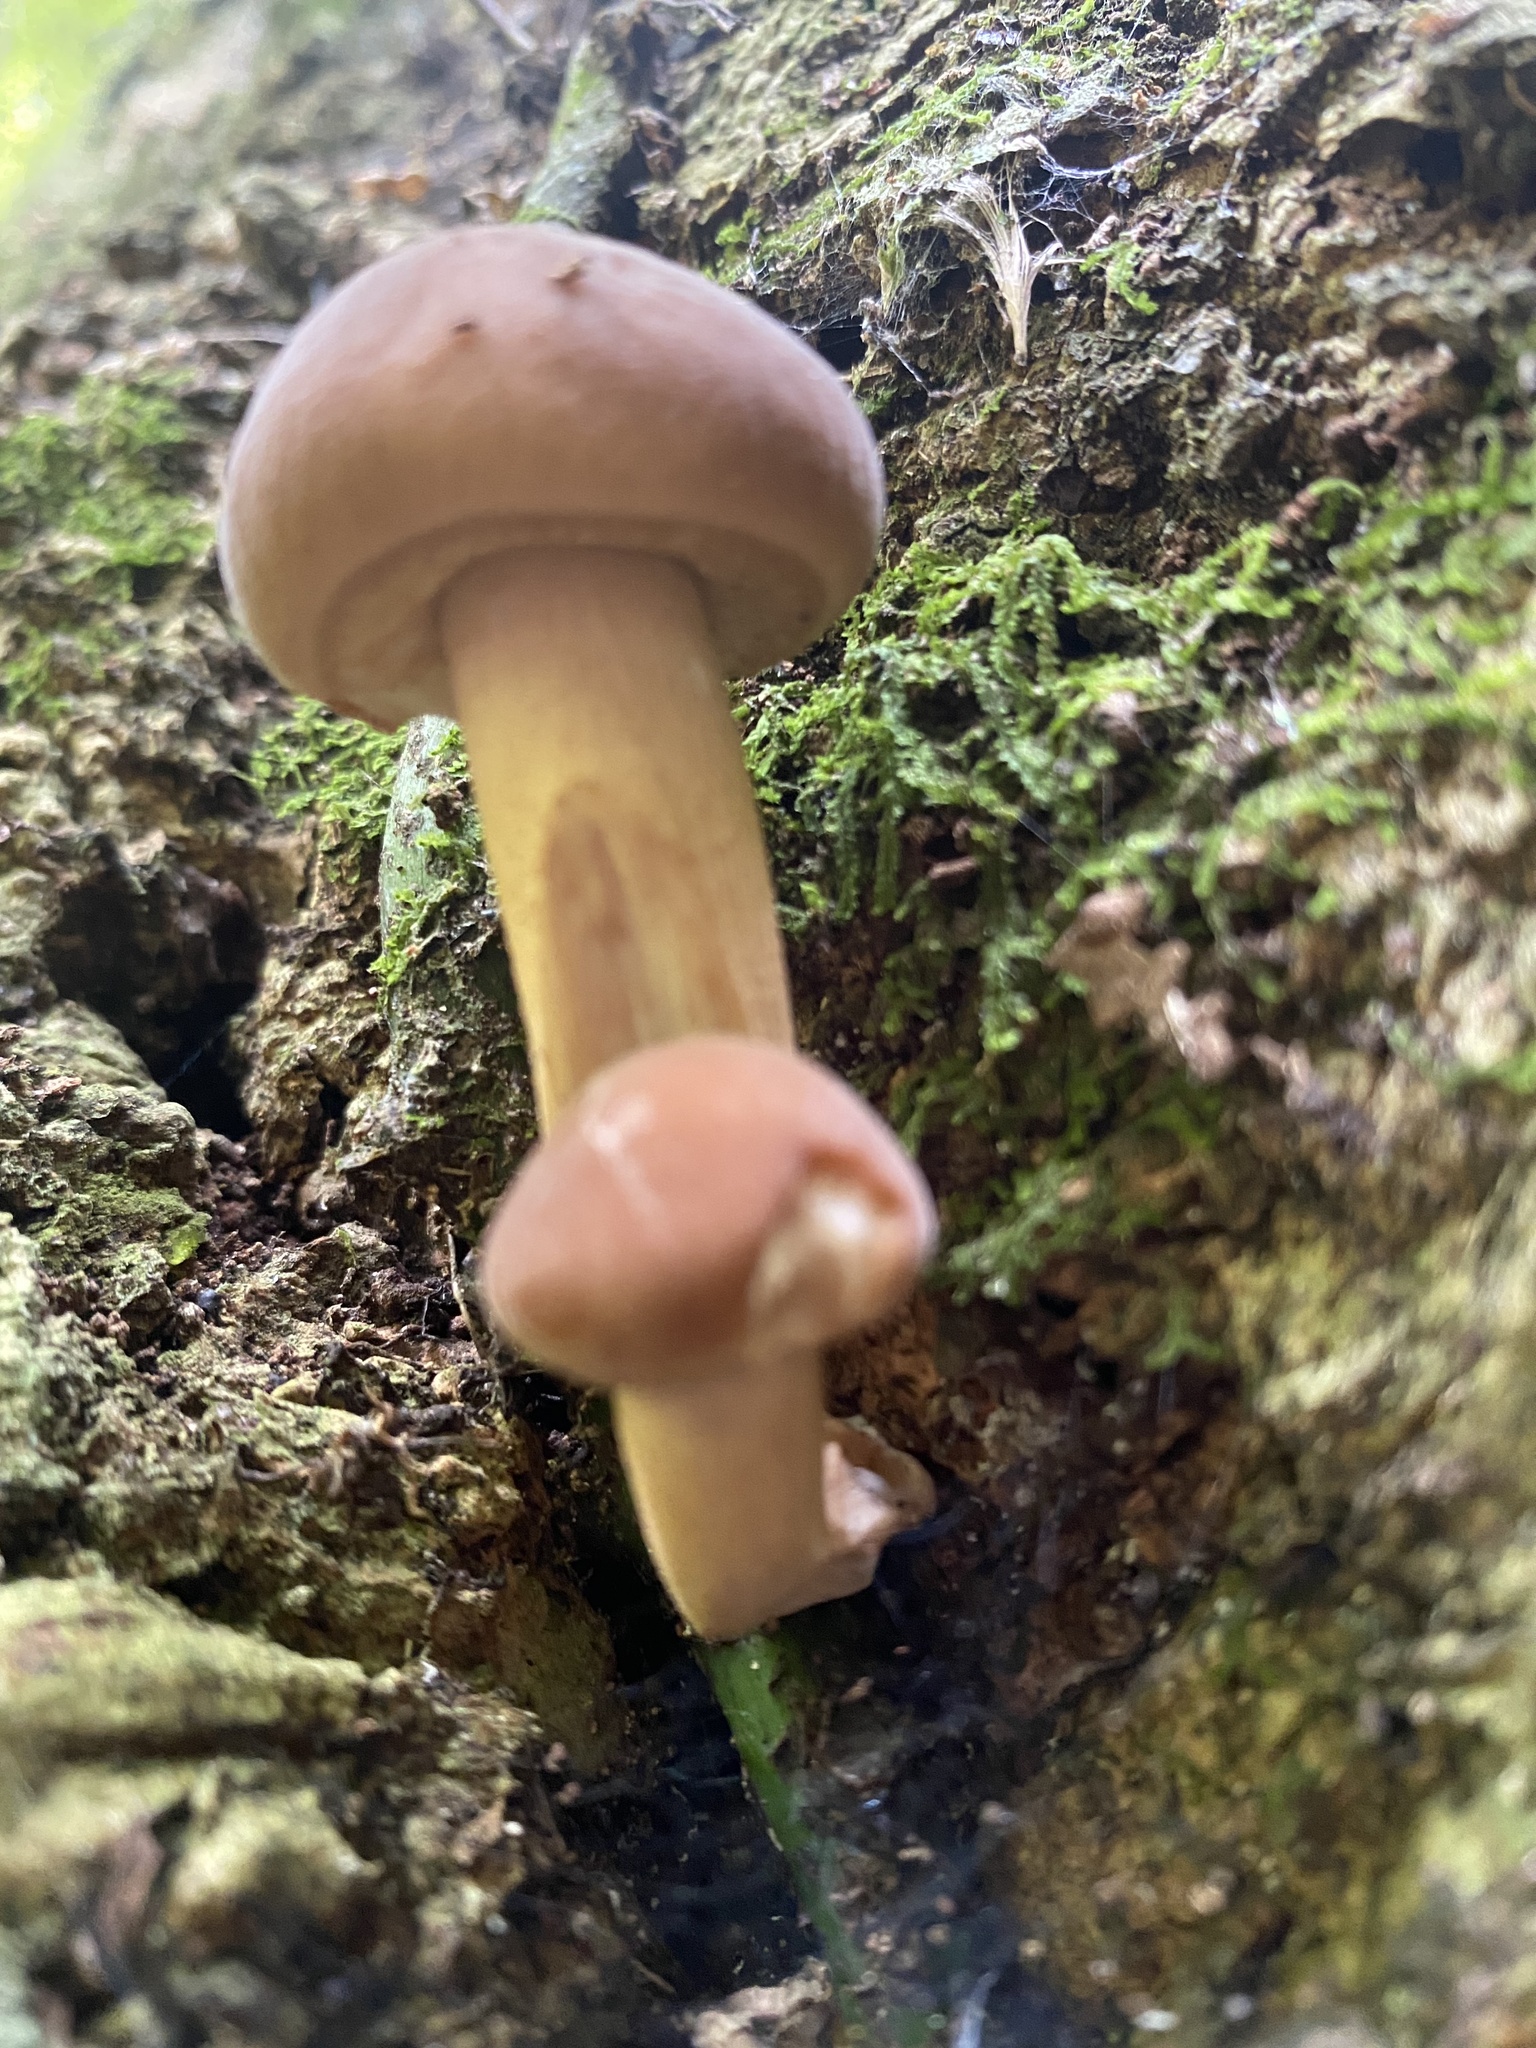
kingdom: Fungi
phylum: Basidiomycota
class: Agaricomycetes
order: Agaricales
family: Tubariaceae
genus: Cyclocybe
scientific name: Cyclocybe parasitica
